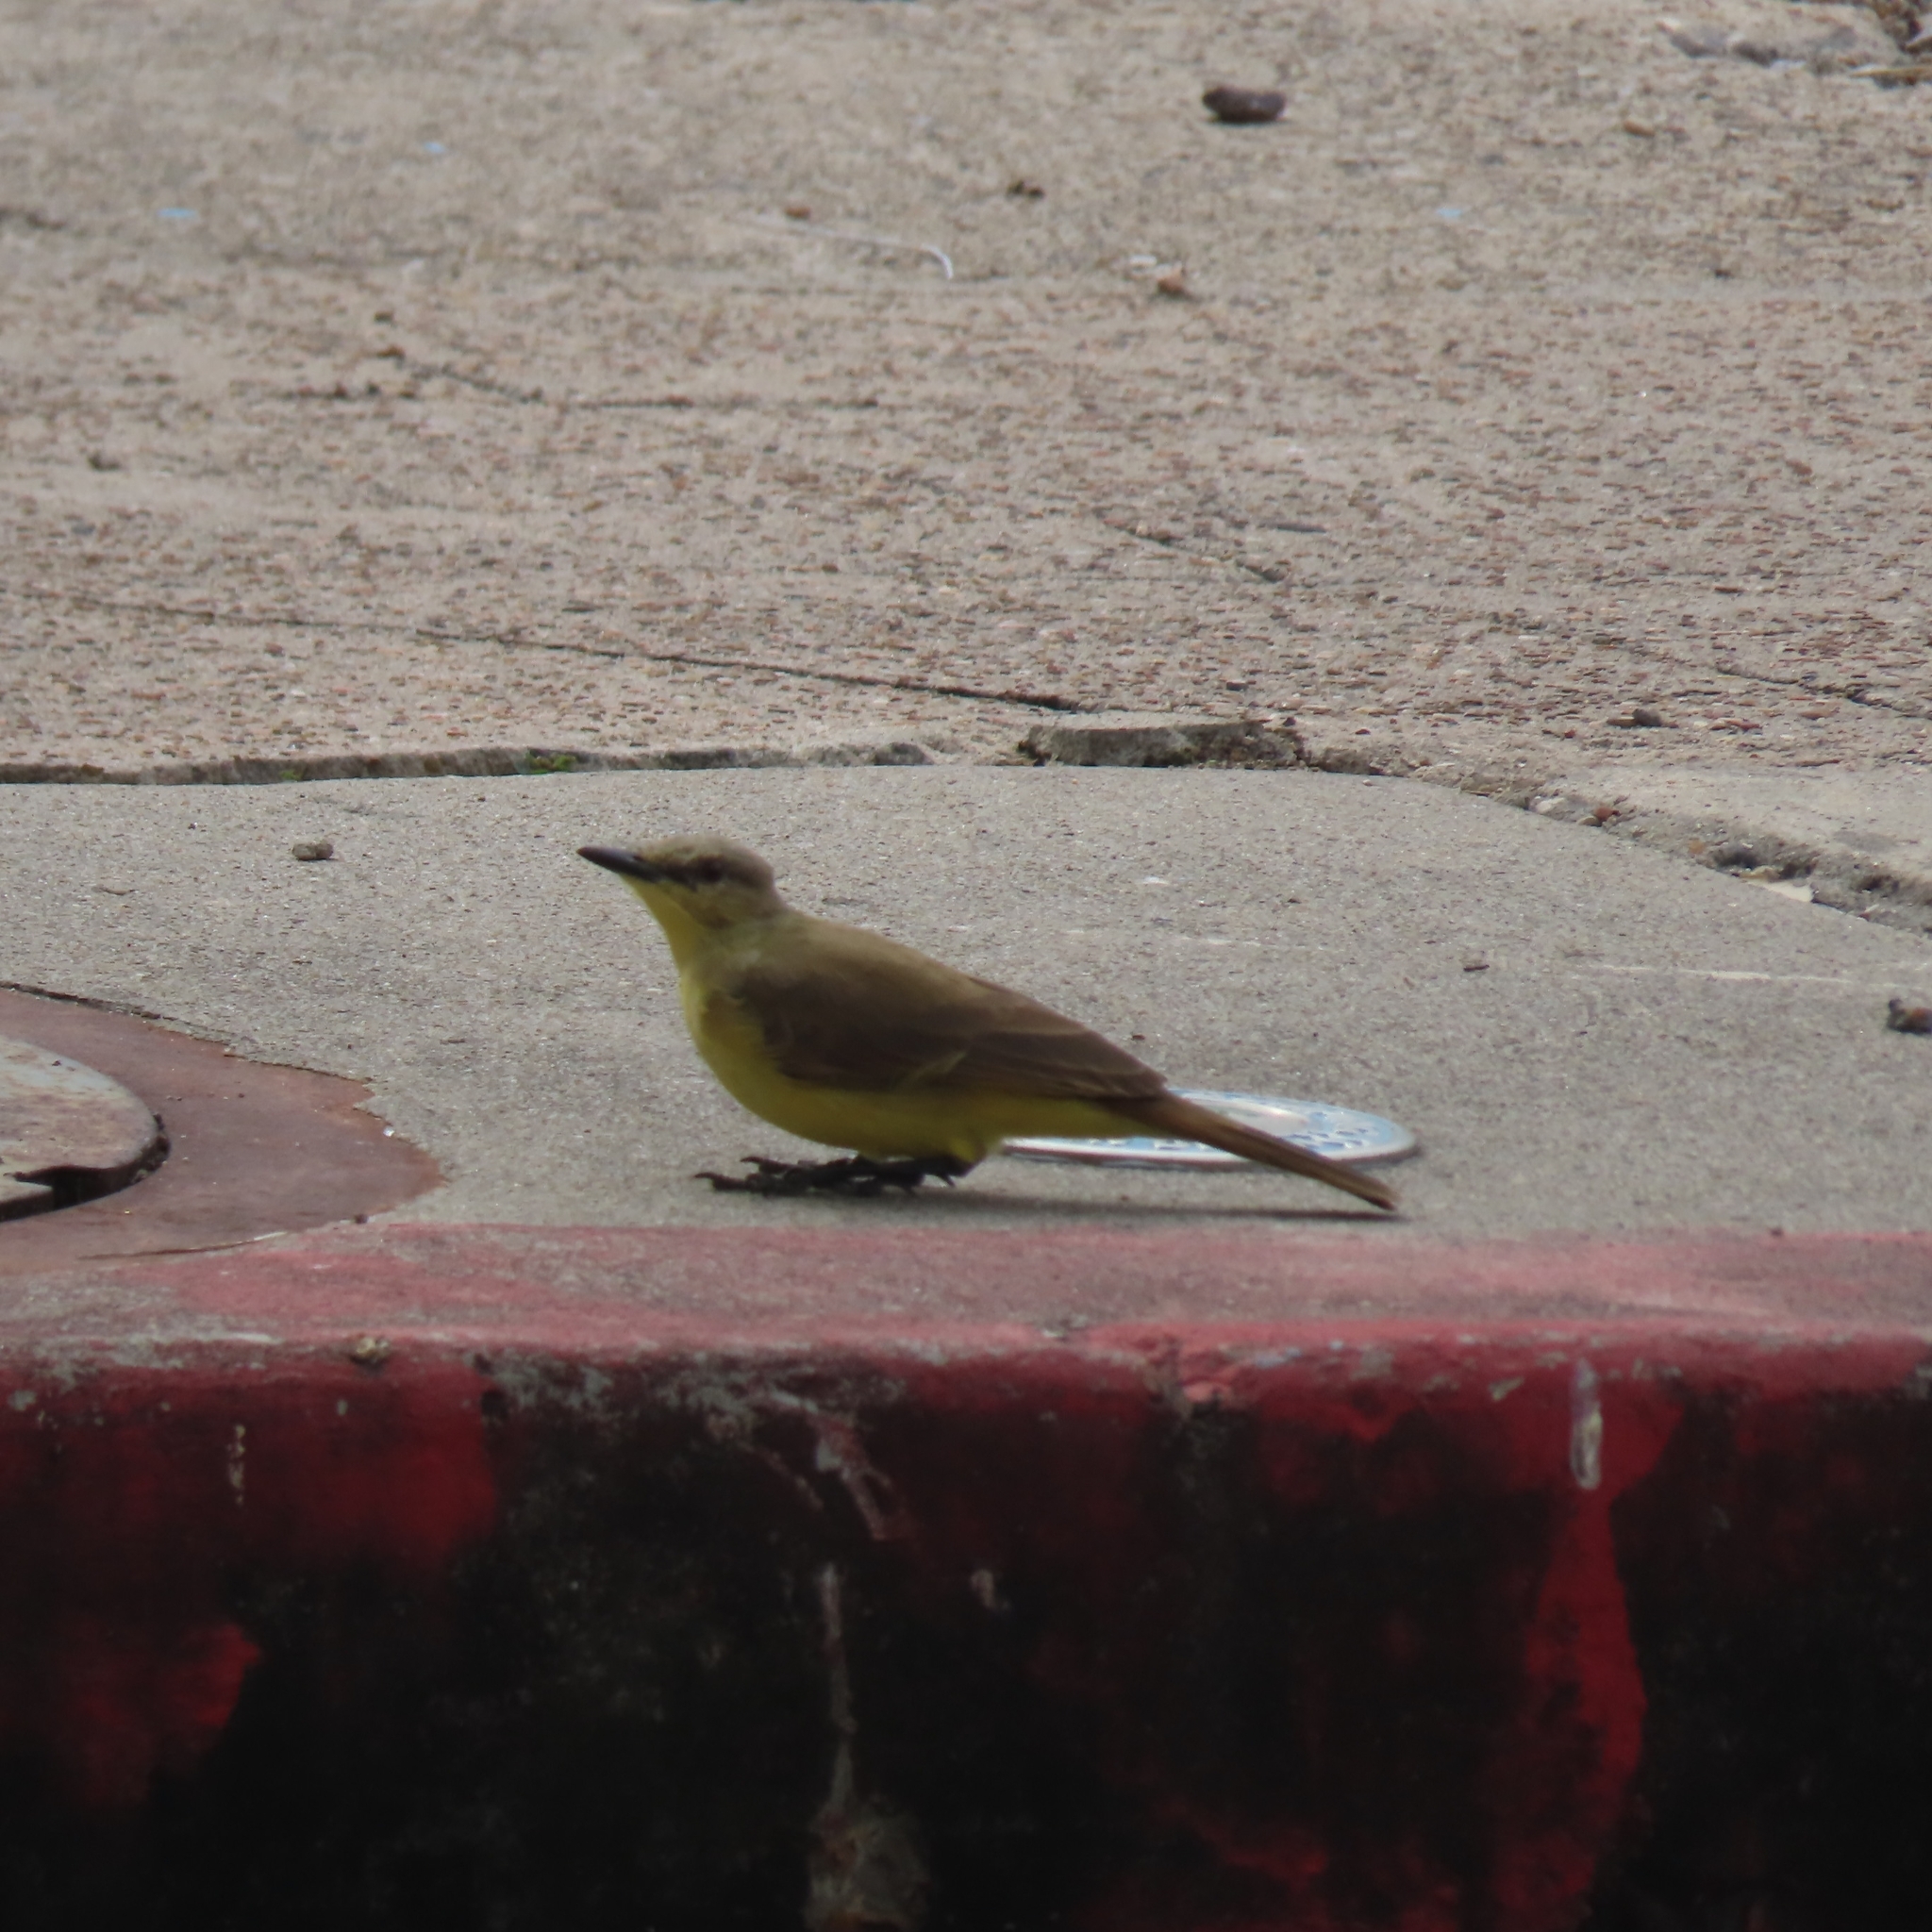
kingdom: Animalia
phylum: Chordata
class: Aves
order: Passeriformes
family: Tyrannidae
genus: Machetornis
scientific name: Machetornis rixosa
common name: Cattle tyrant
